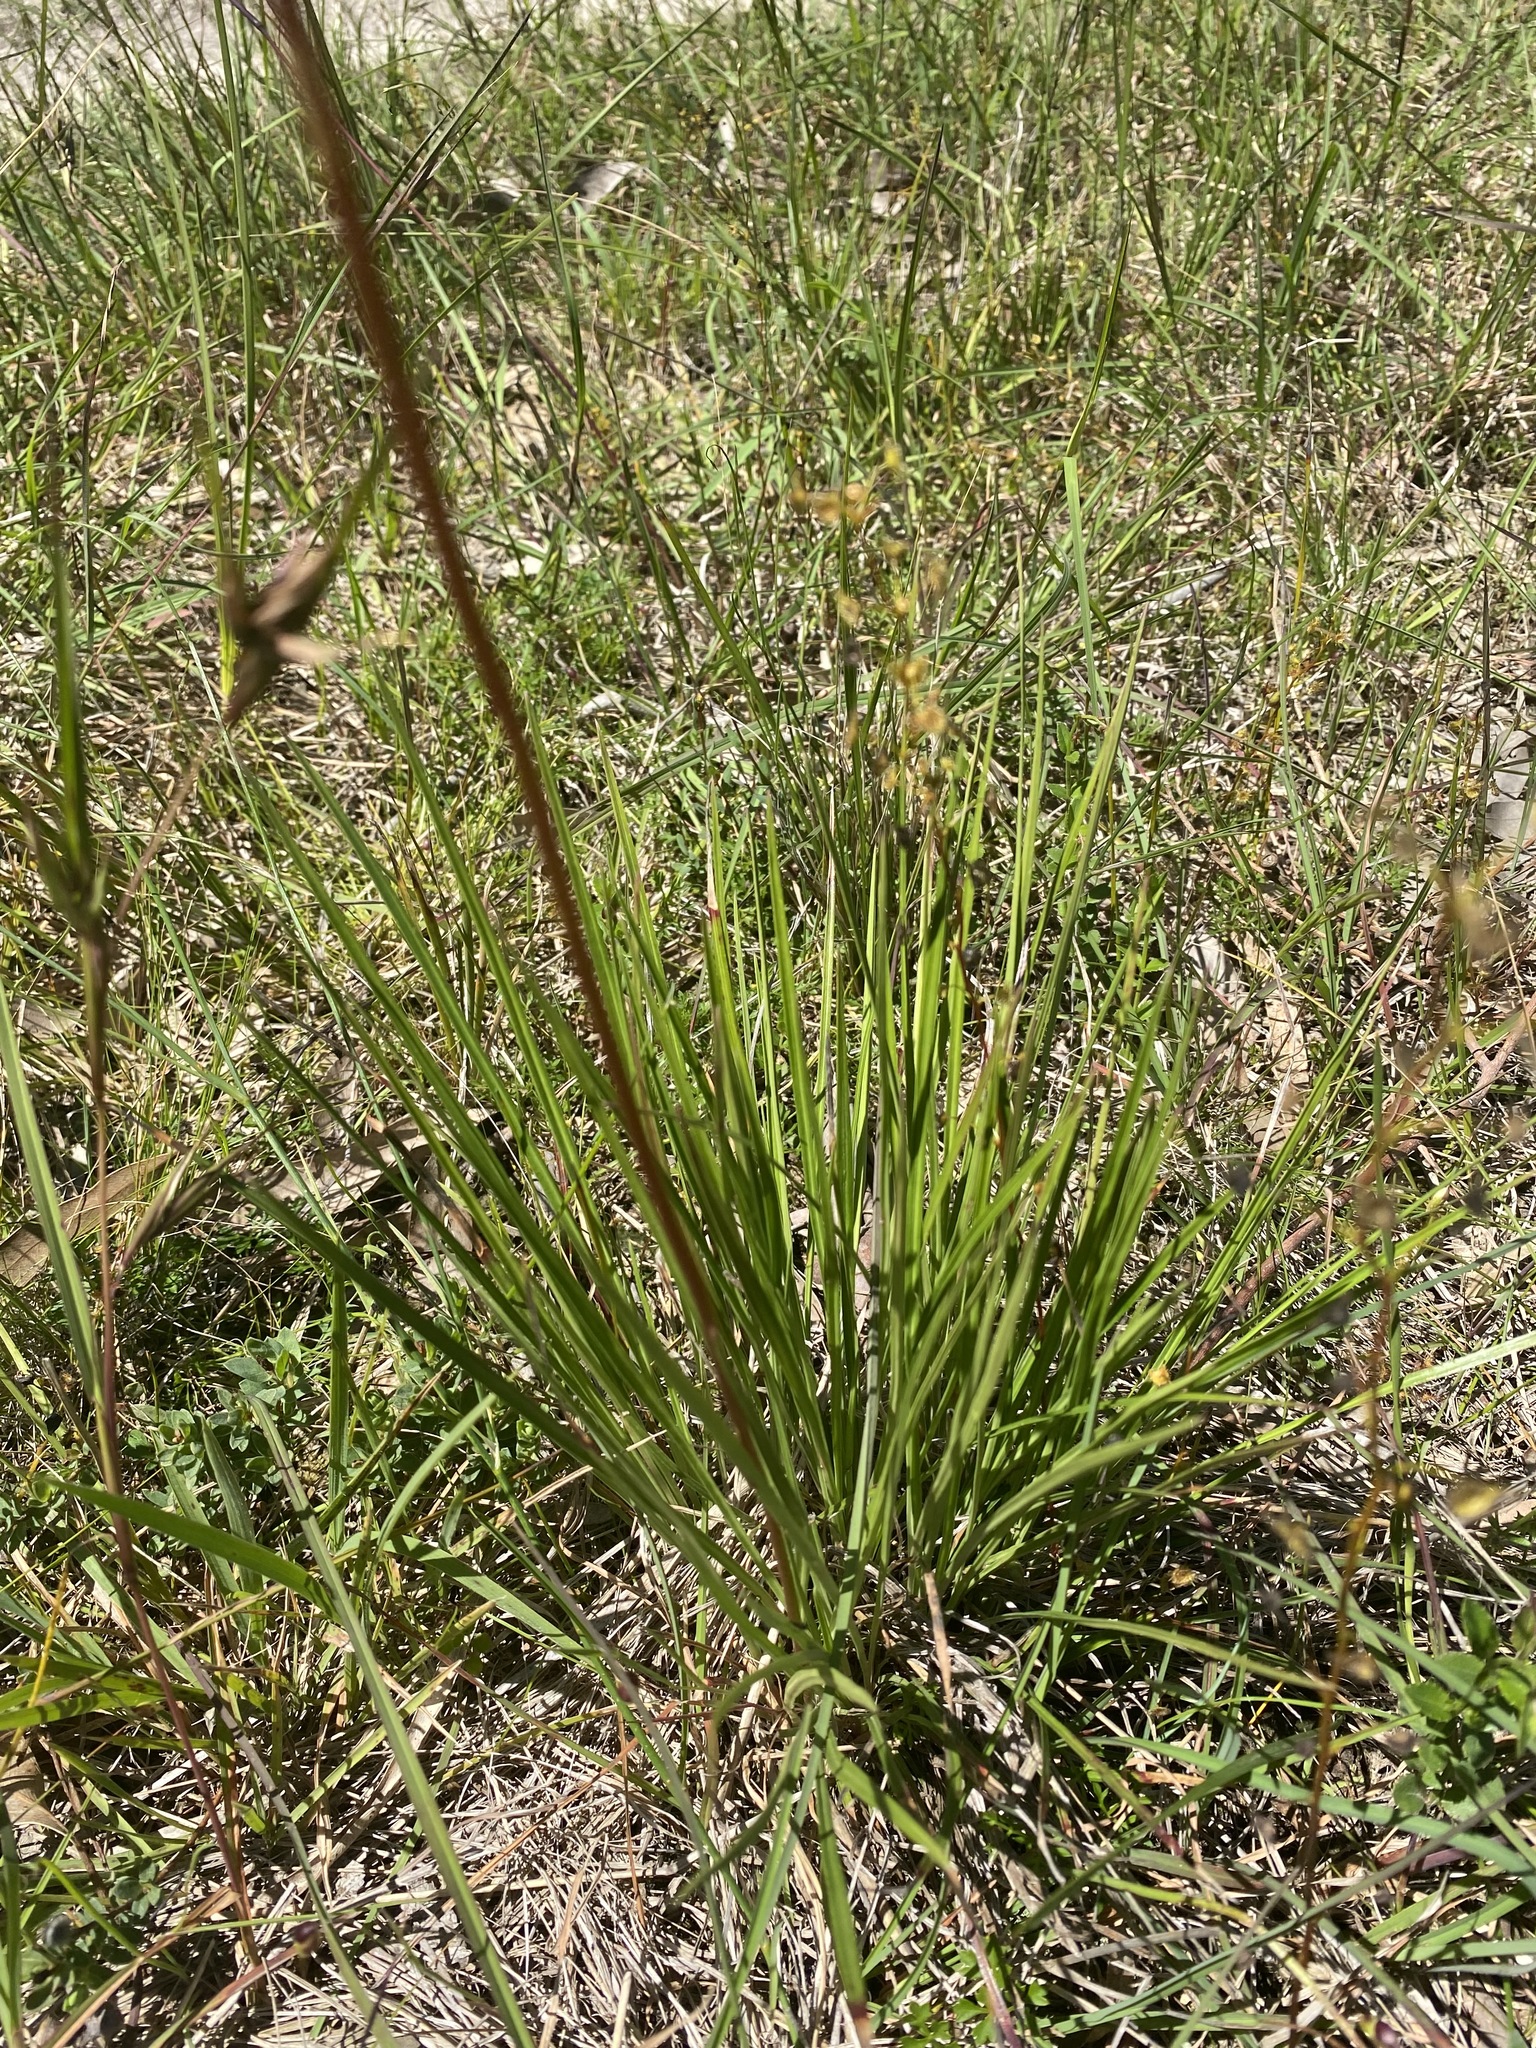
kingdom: Plantae
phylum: Tracheophyta
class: Magnoliopsida
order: Asterales
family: Stylidiaceae
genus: Stylidium
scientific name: Stylidium graminifolium
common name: Grass triggerplant
